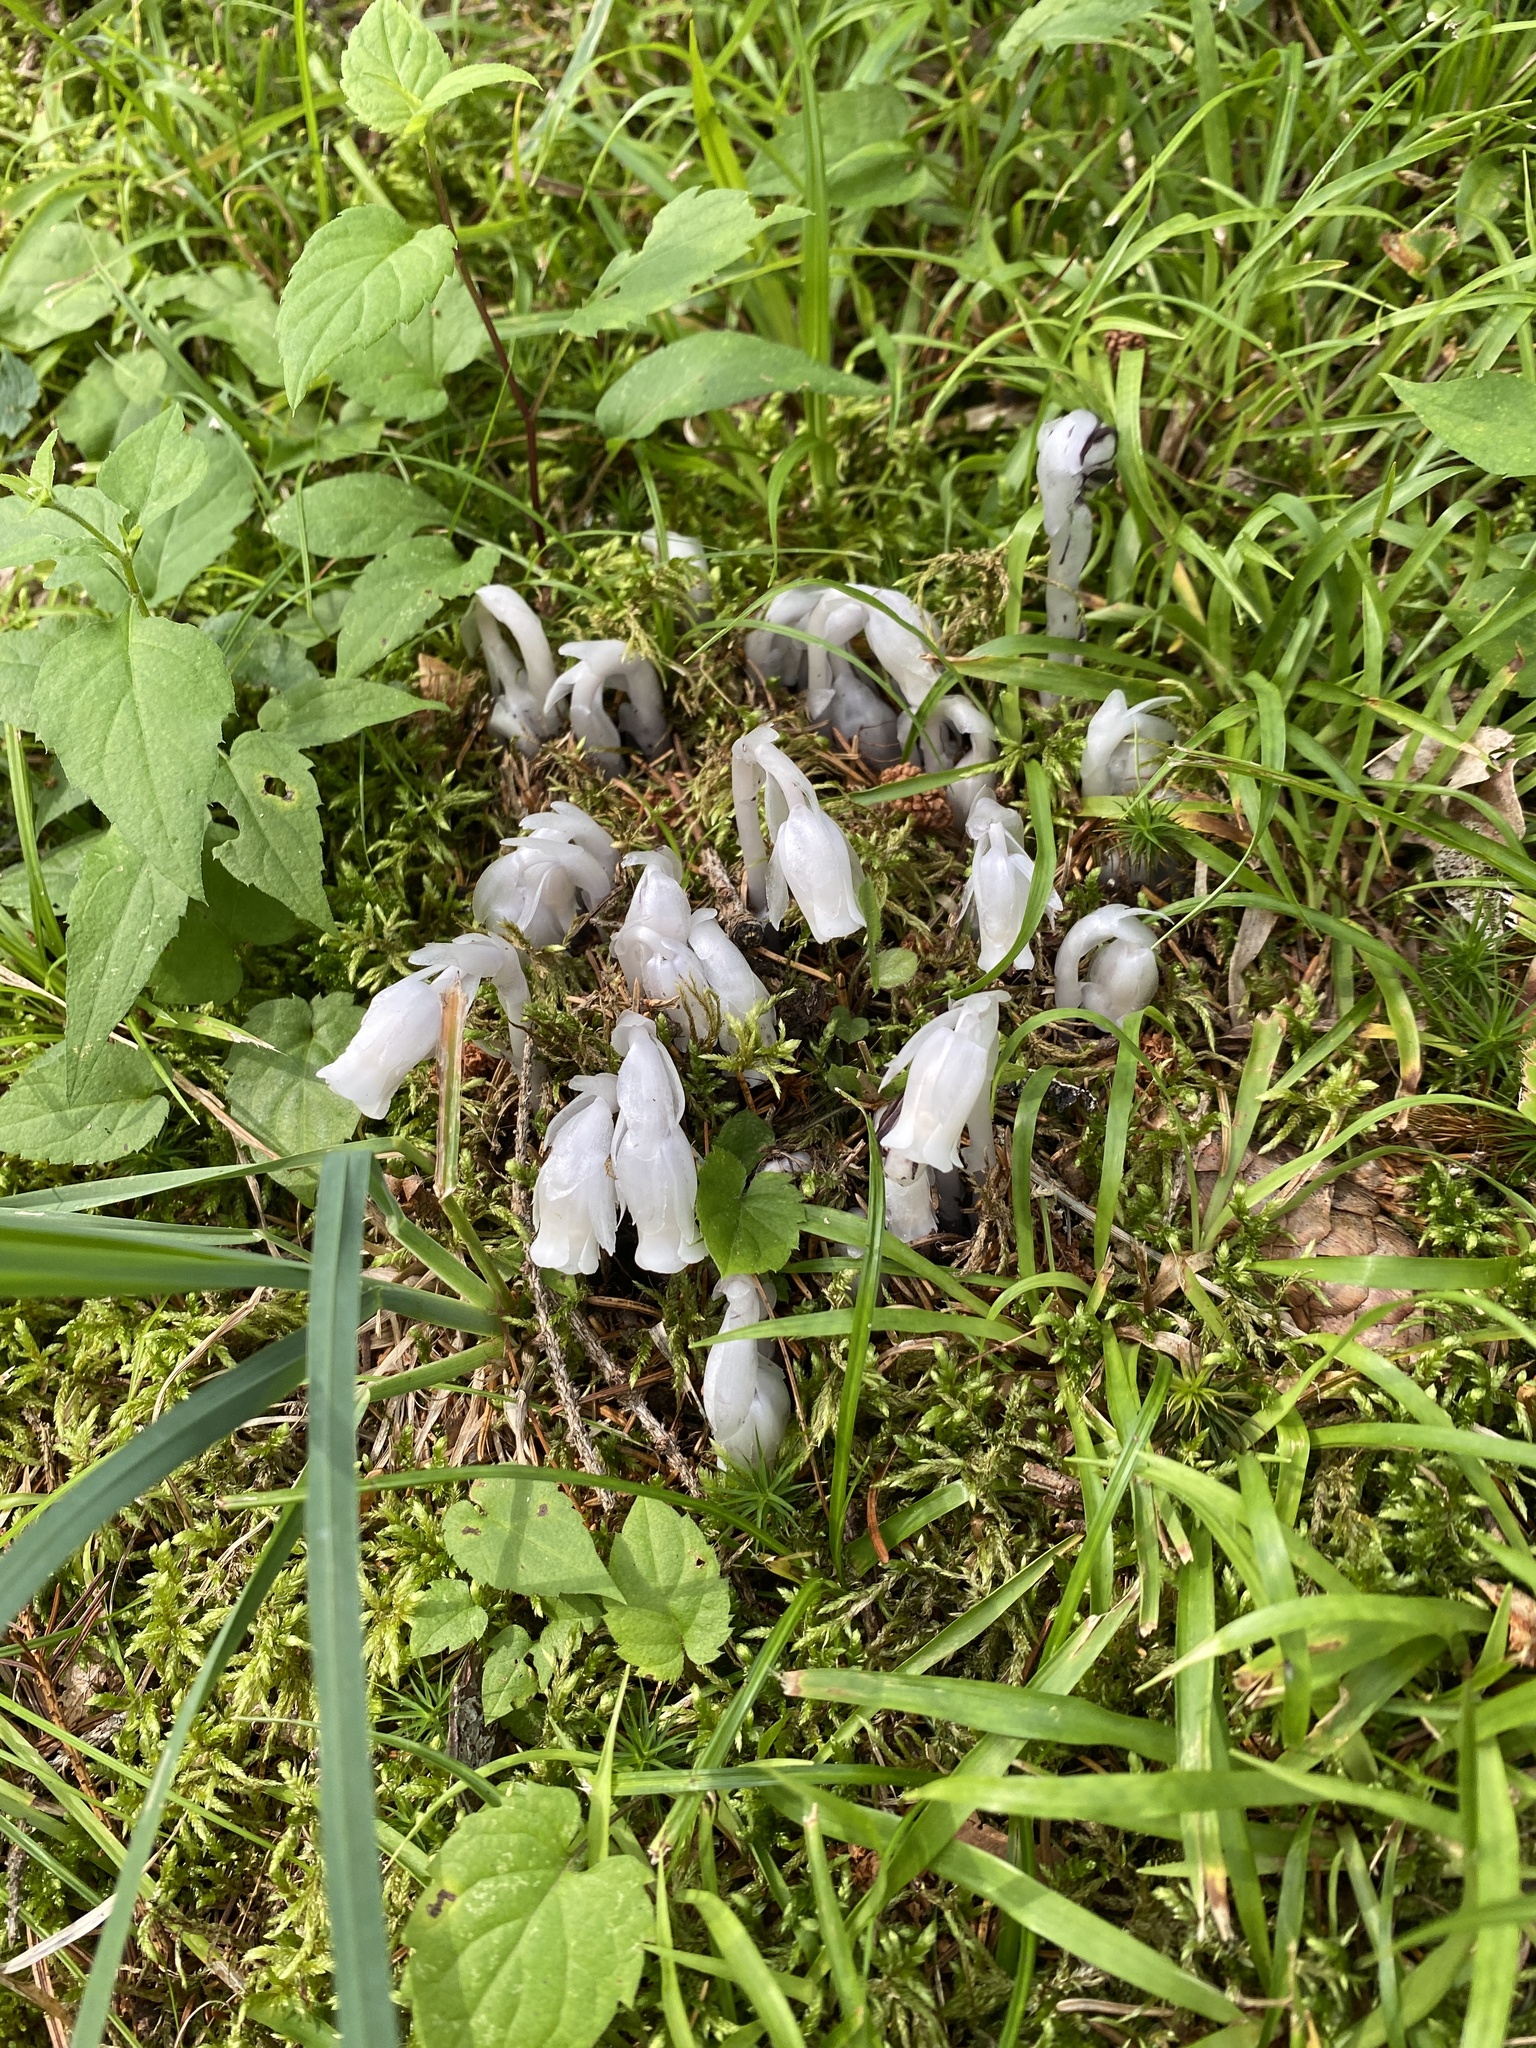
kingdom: Plantae
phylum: Tracheophyta
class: Magnoliopsida
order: Ericales
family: Ericaceae
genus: Monotropa
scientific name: Monotropa uniflora
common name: Convulsion root
